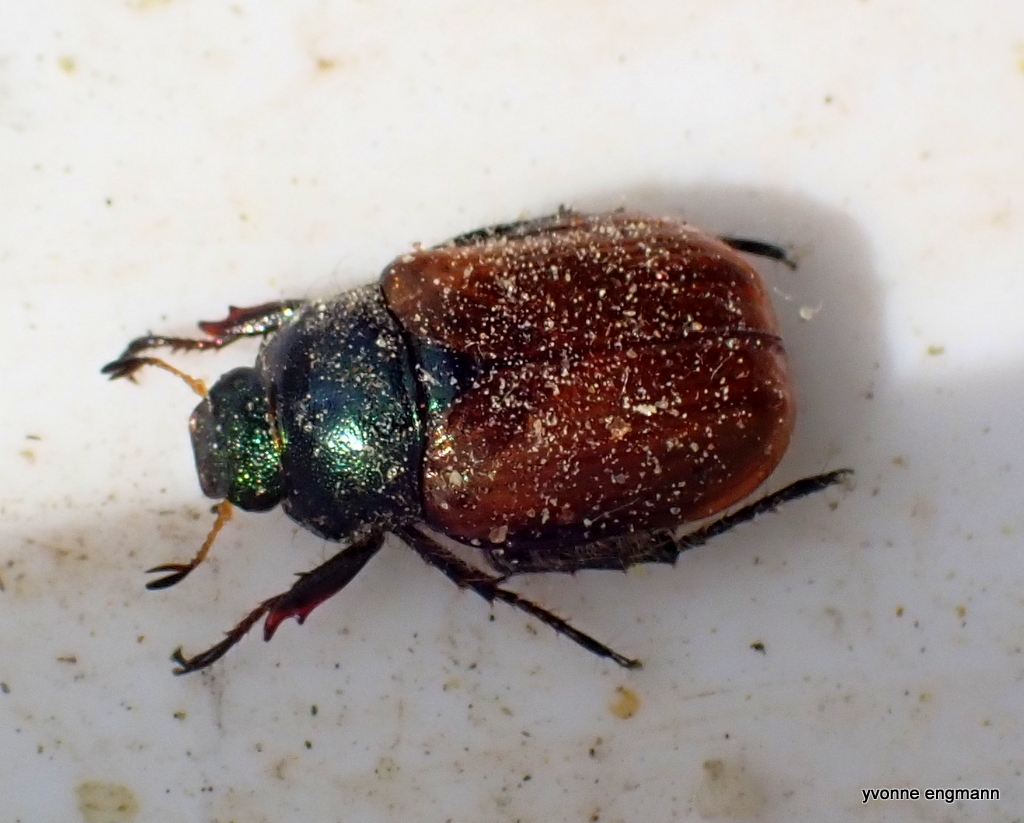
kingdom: Animalia
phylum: Arthropoda
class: Insecta
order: Coleoptera
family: Scarabaeidae
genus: Phyllopertha
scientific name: Phyllopertha horticola
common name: Garden chafer
